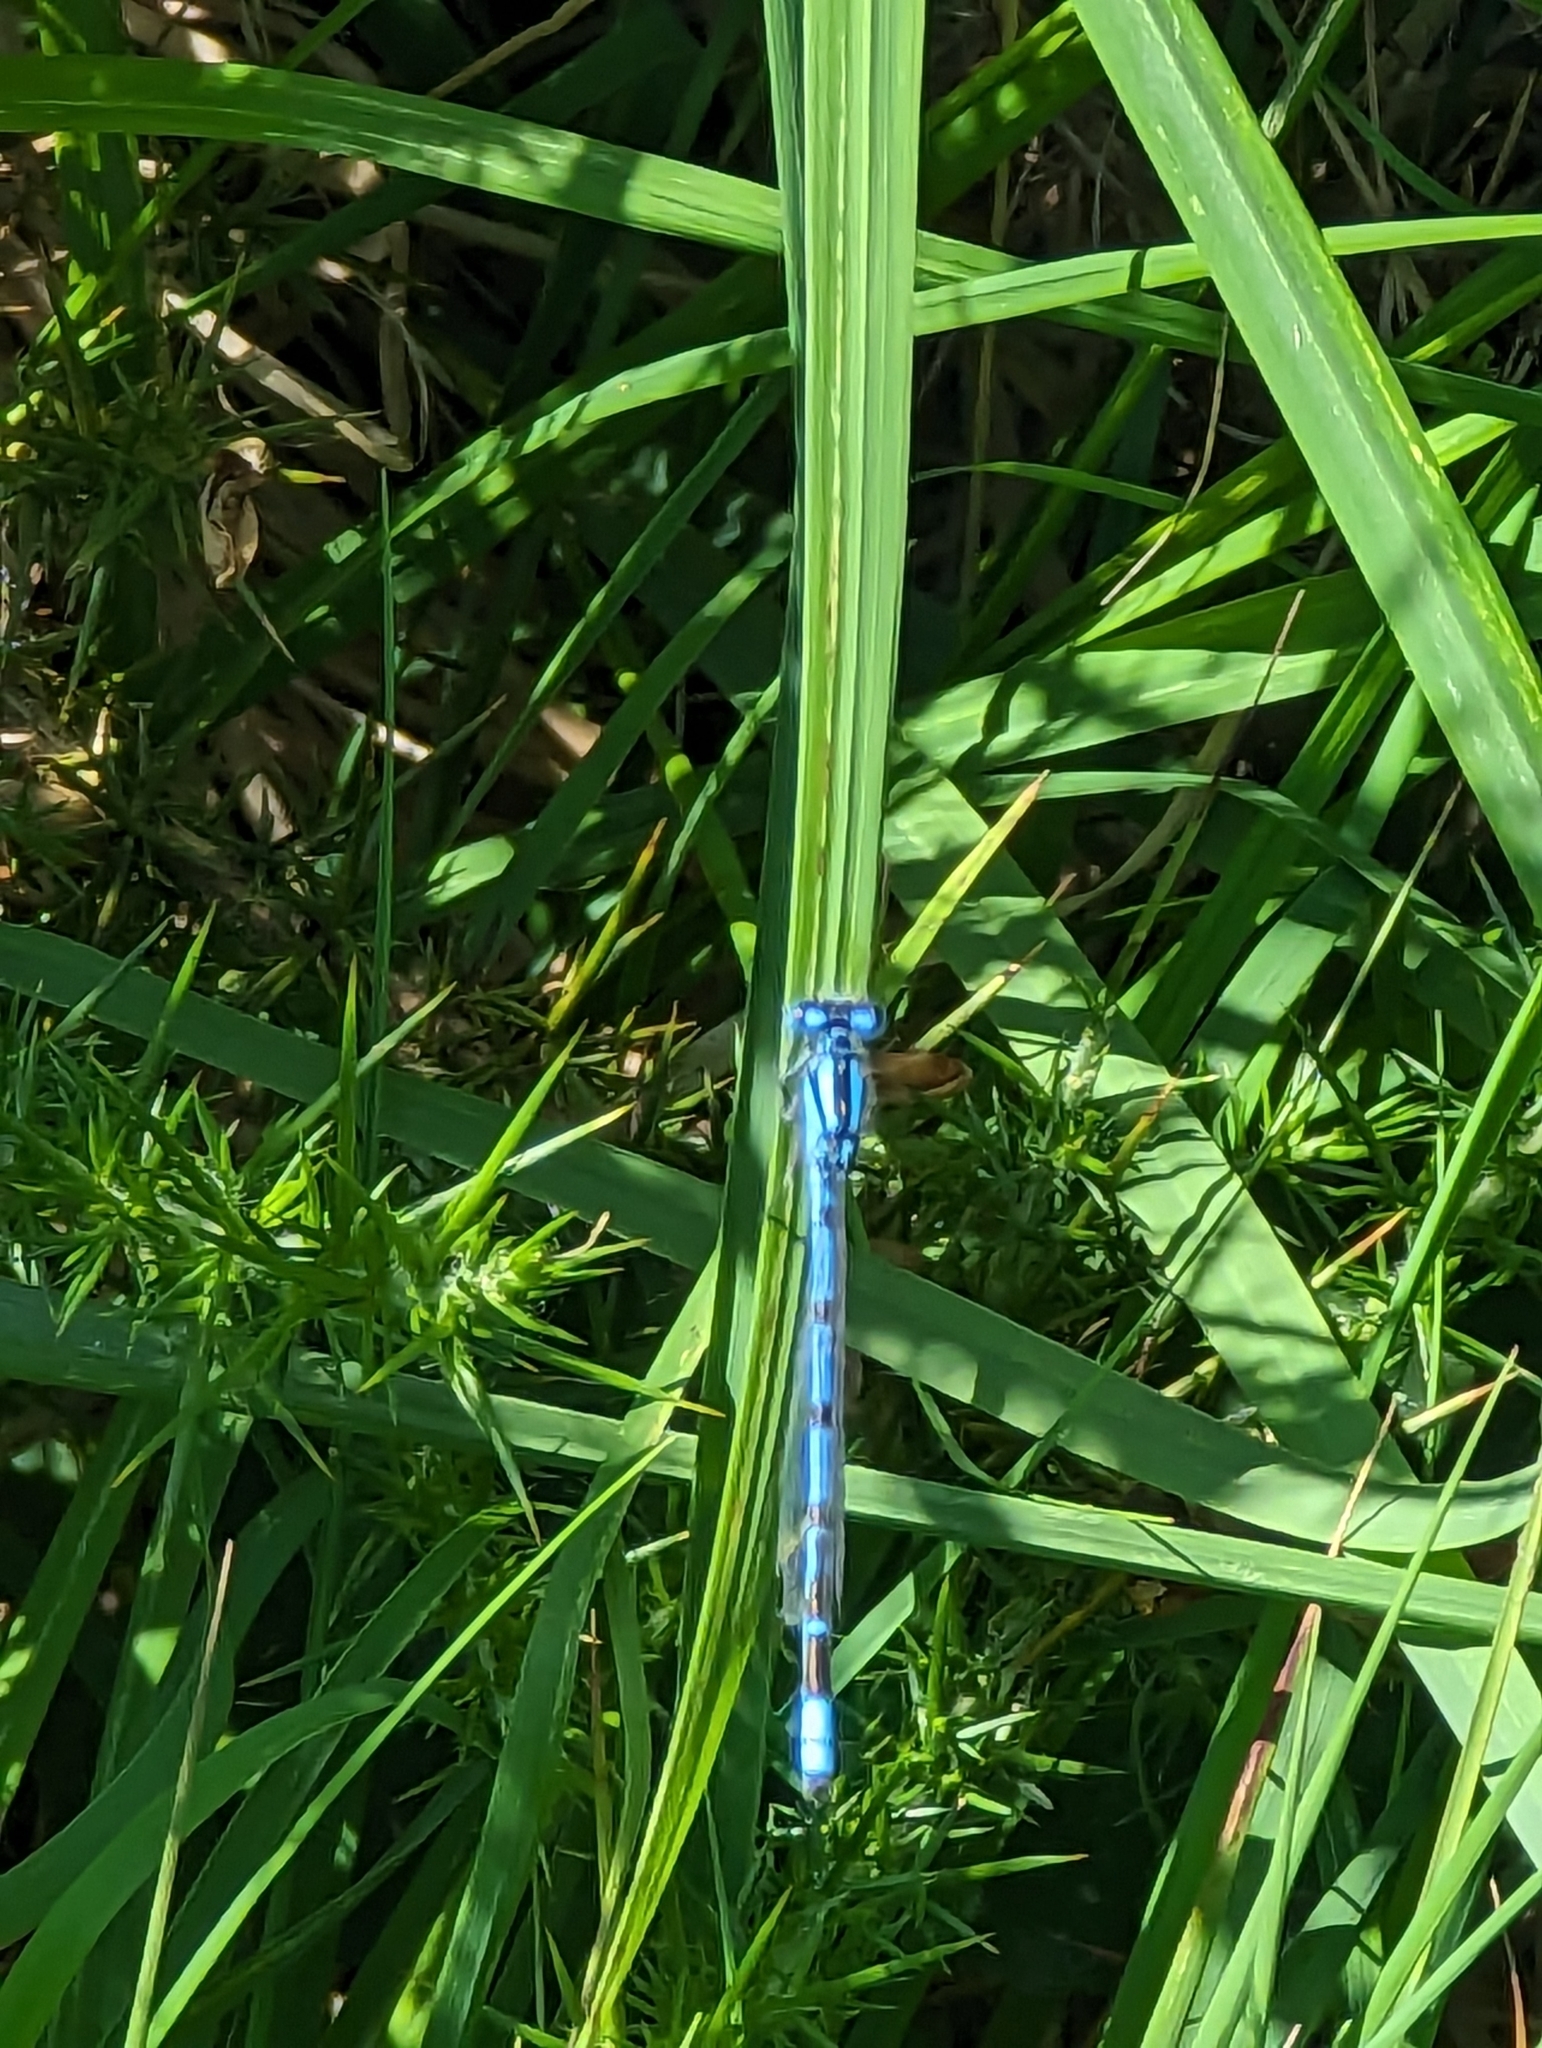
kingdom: Animalia
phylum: Arthropoda
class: Insecta
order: Odonata
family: Coenagrionidae
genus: Enallagma
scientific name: Enallagma cyathigerum
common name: Common blue damselfly
